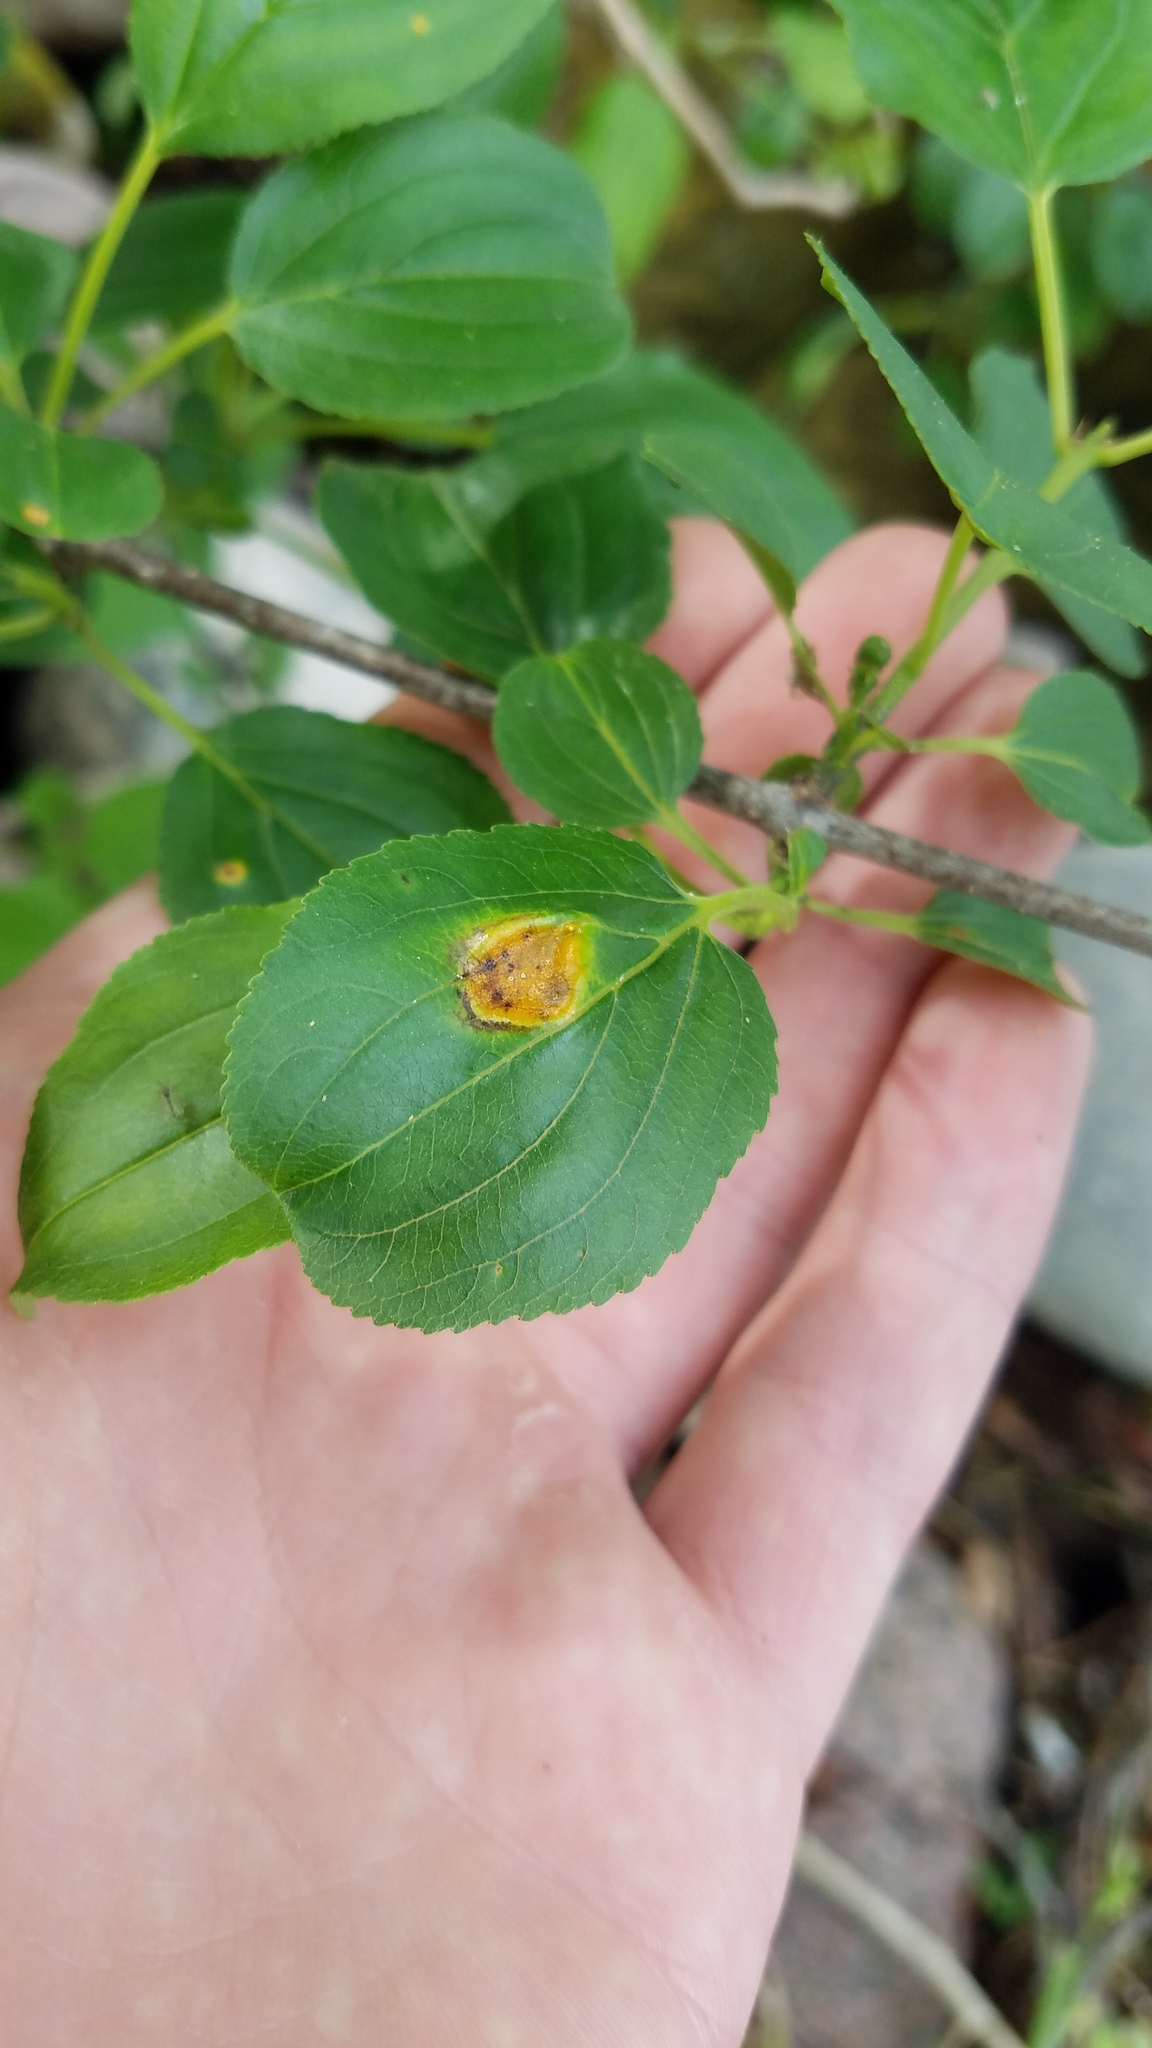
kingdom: Fungi
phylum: Basidiomycota
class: Pucciniomycetes
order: Pucciniales
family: Pucciniaceae
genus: Puccinia
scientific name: Puccinia
